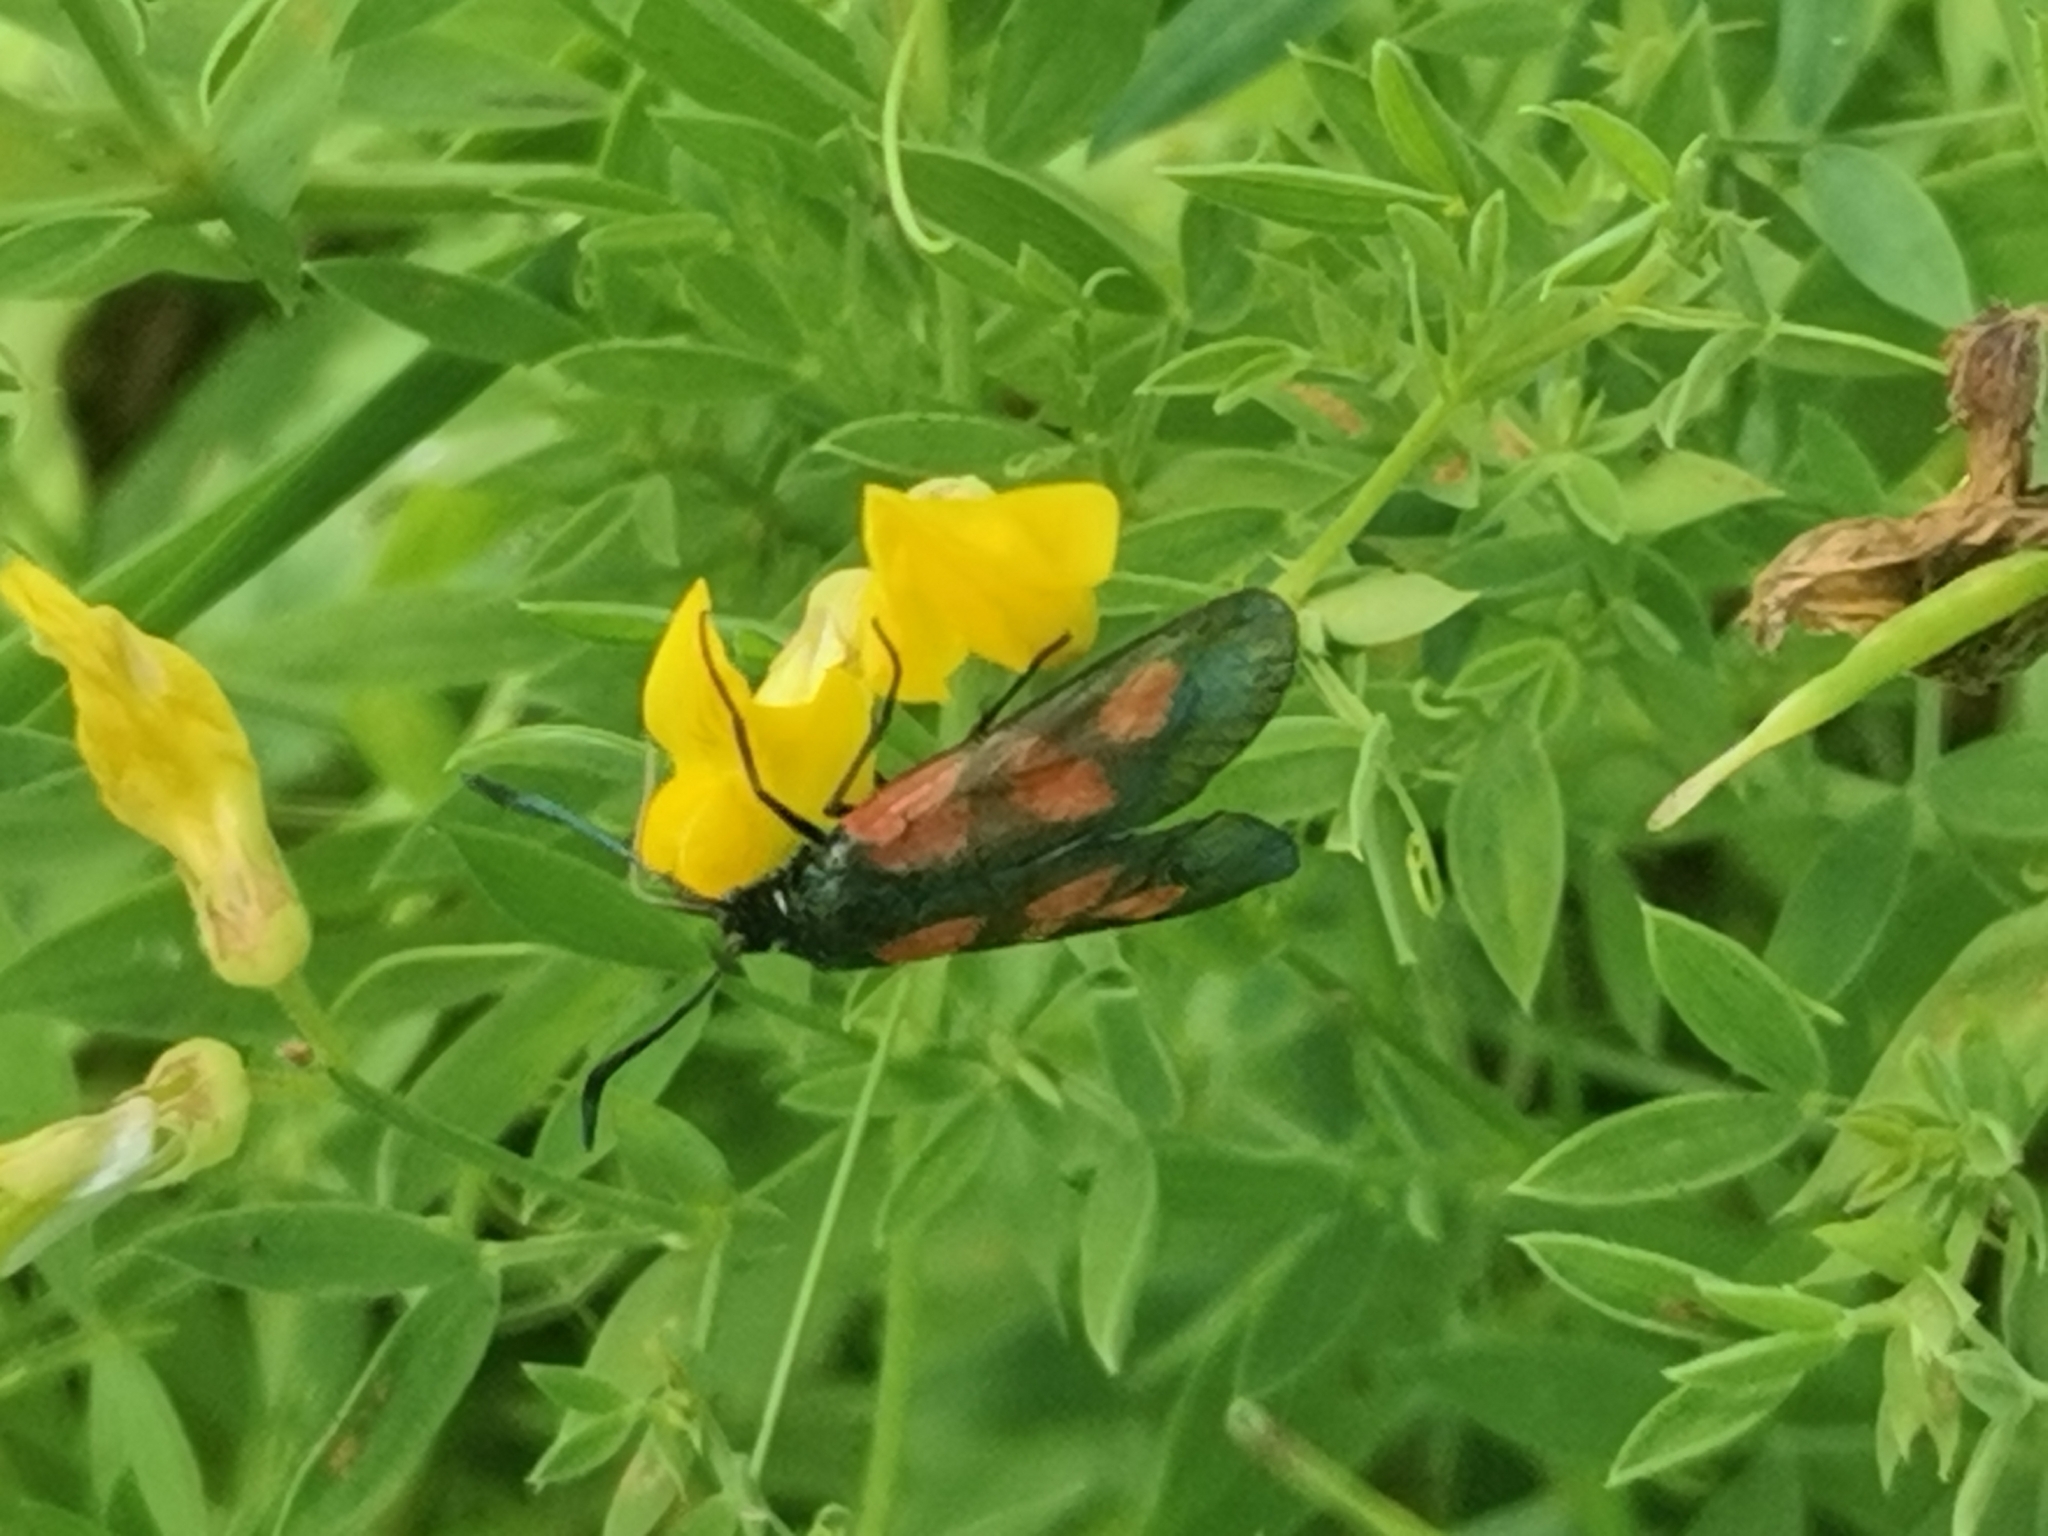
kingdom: Animalia
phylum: Arthropoda
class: Insecta
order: Lepidoptera
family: Zygaenidae
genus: Zygaena
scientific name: Zygaena viciae
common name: New forest burnet
